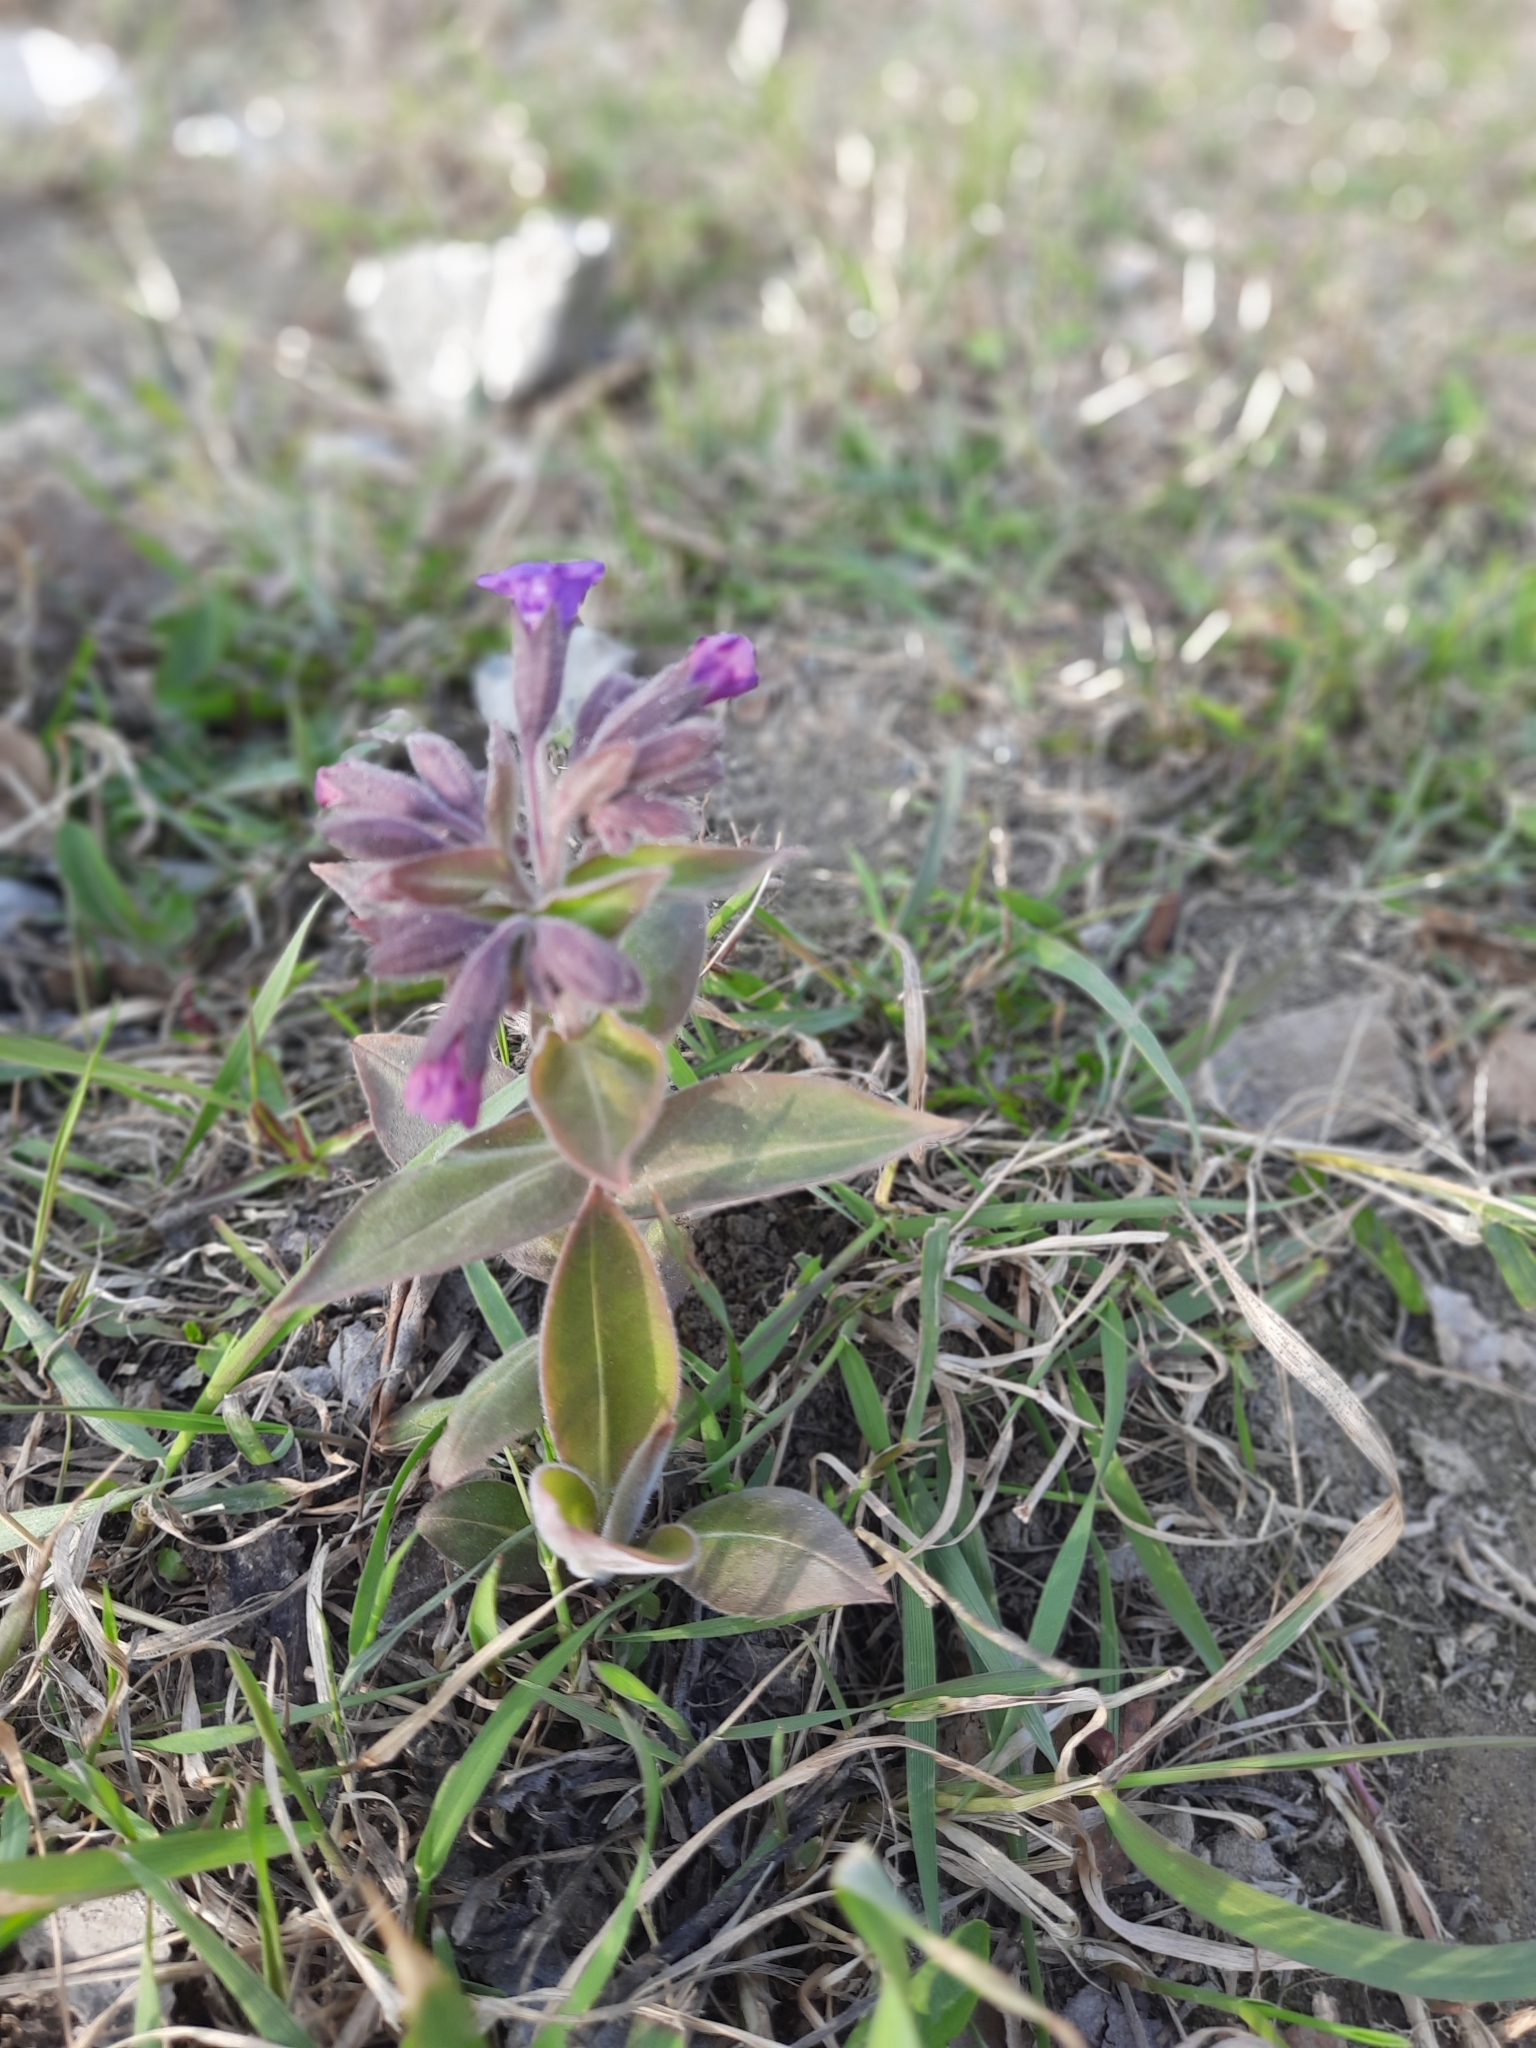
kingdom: Plantae
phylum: Tracheophyta
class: Magnoliopsida
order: Boraginales
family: Boraginaceae
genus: Pulmonaria
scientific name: Pulmonaria mollis
